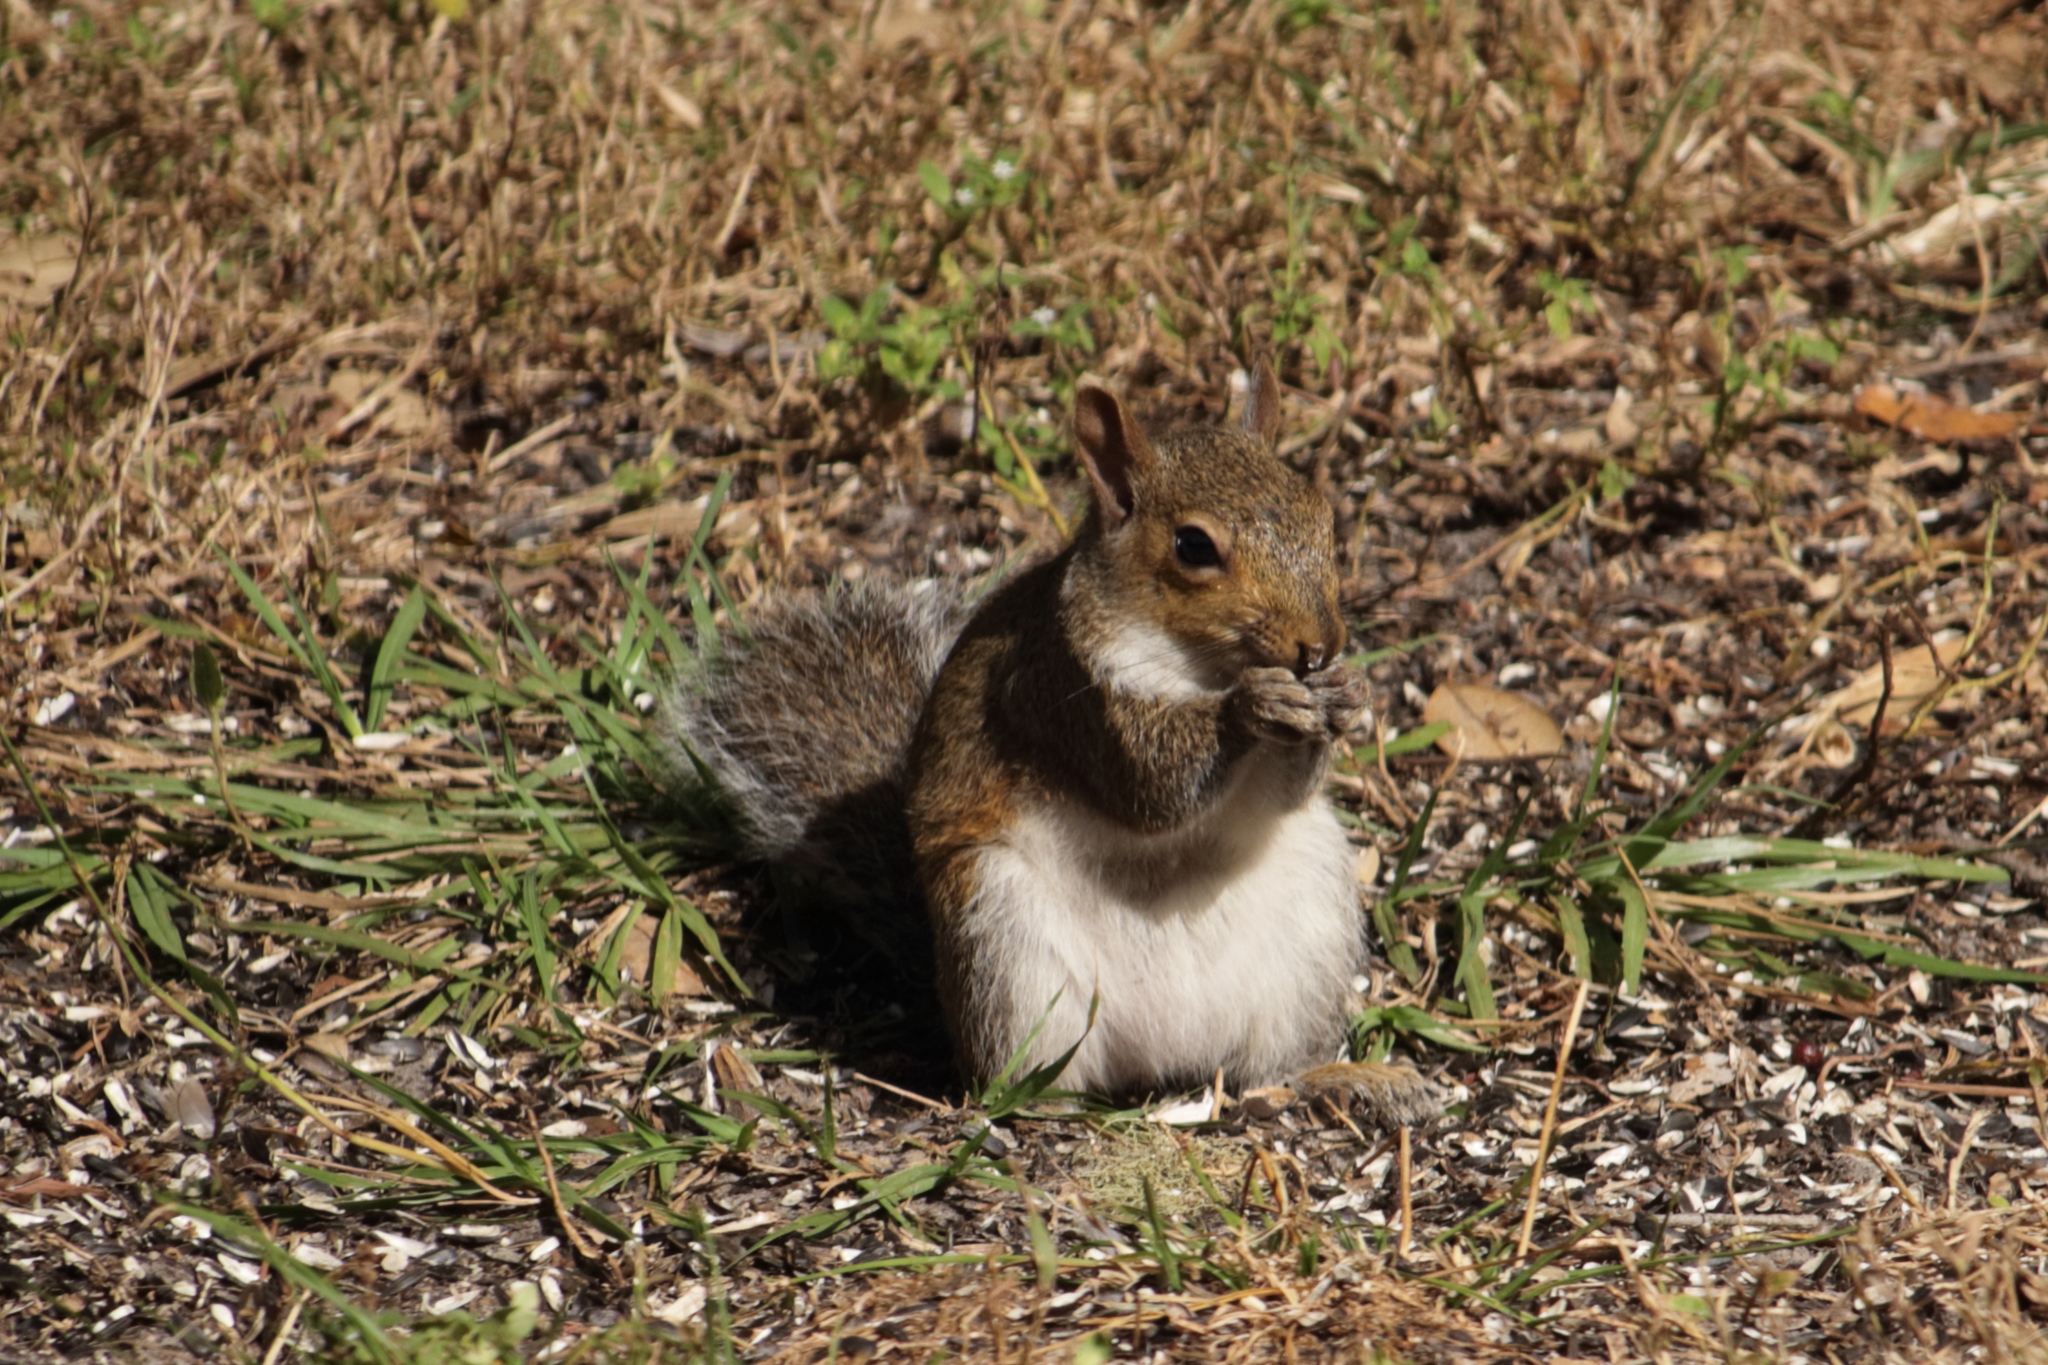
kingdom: Animalia
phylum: Chordata
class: Mammalia
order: Rodentia
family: Sciuridae
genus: Sciurus
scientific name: Sciurus carolinensis
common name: Eastern gray squirrel
